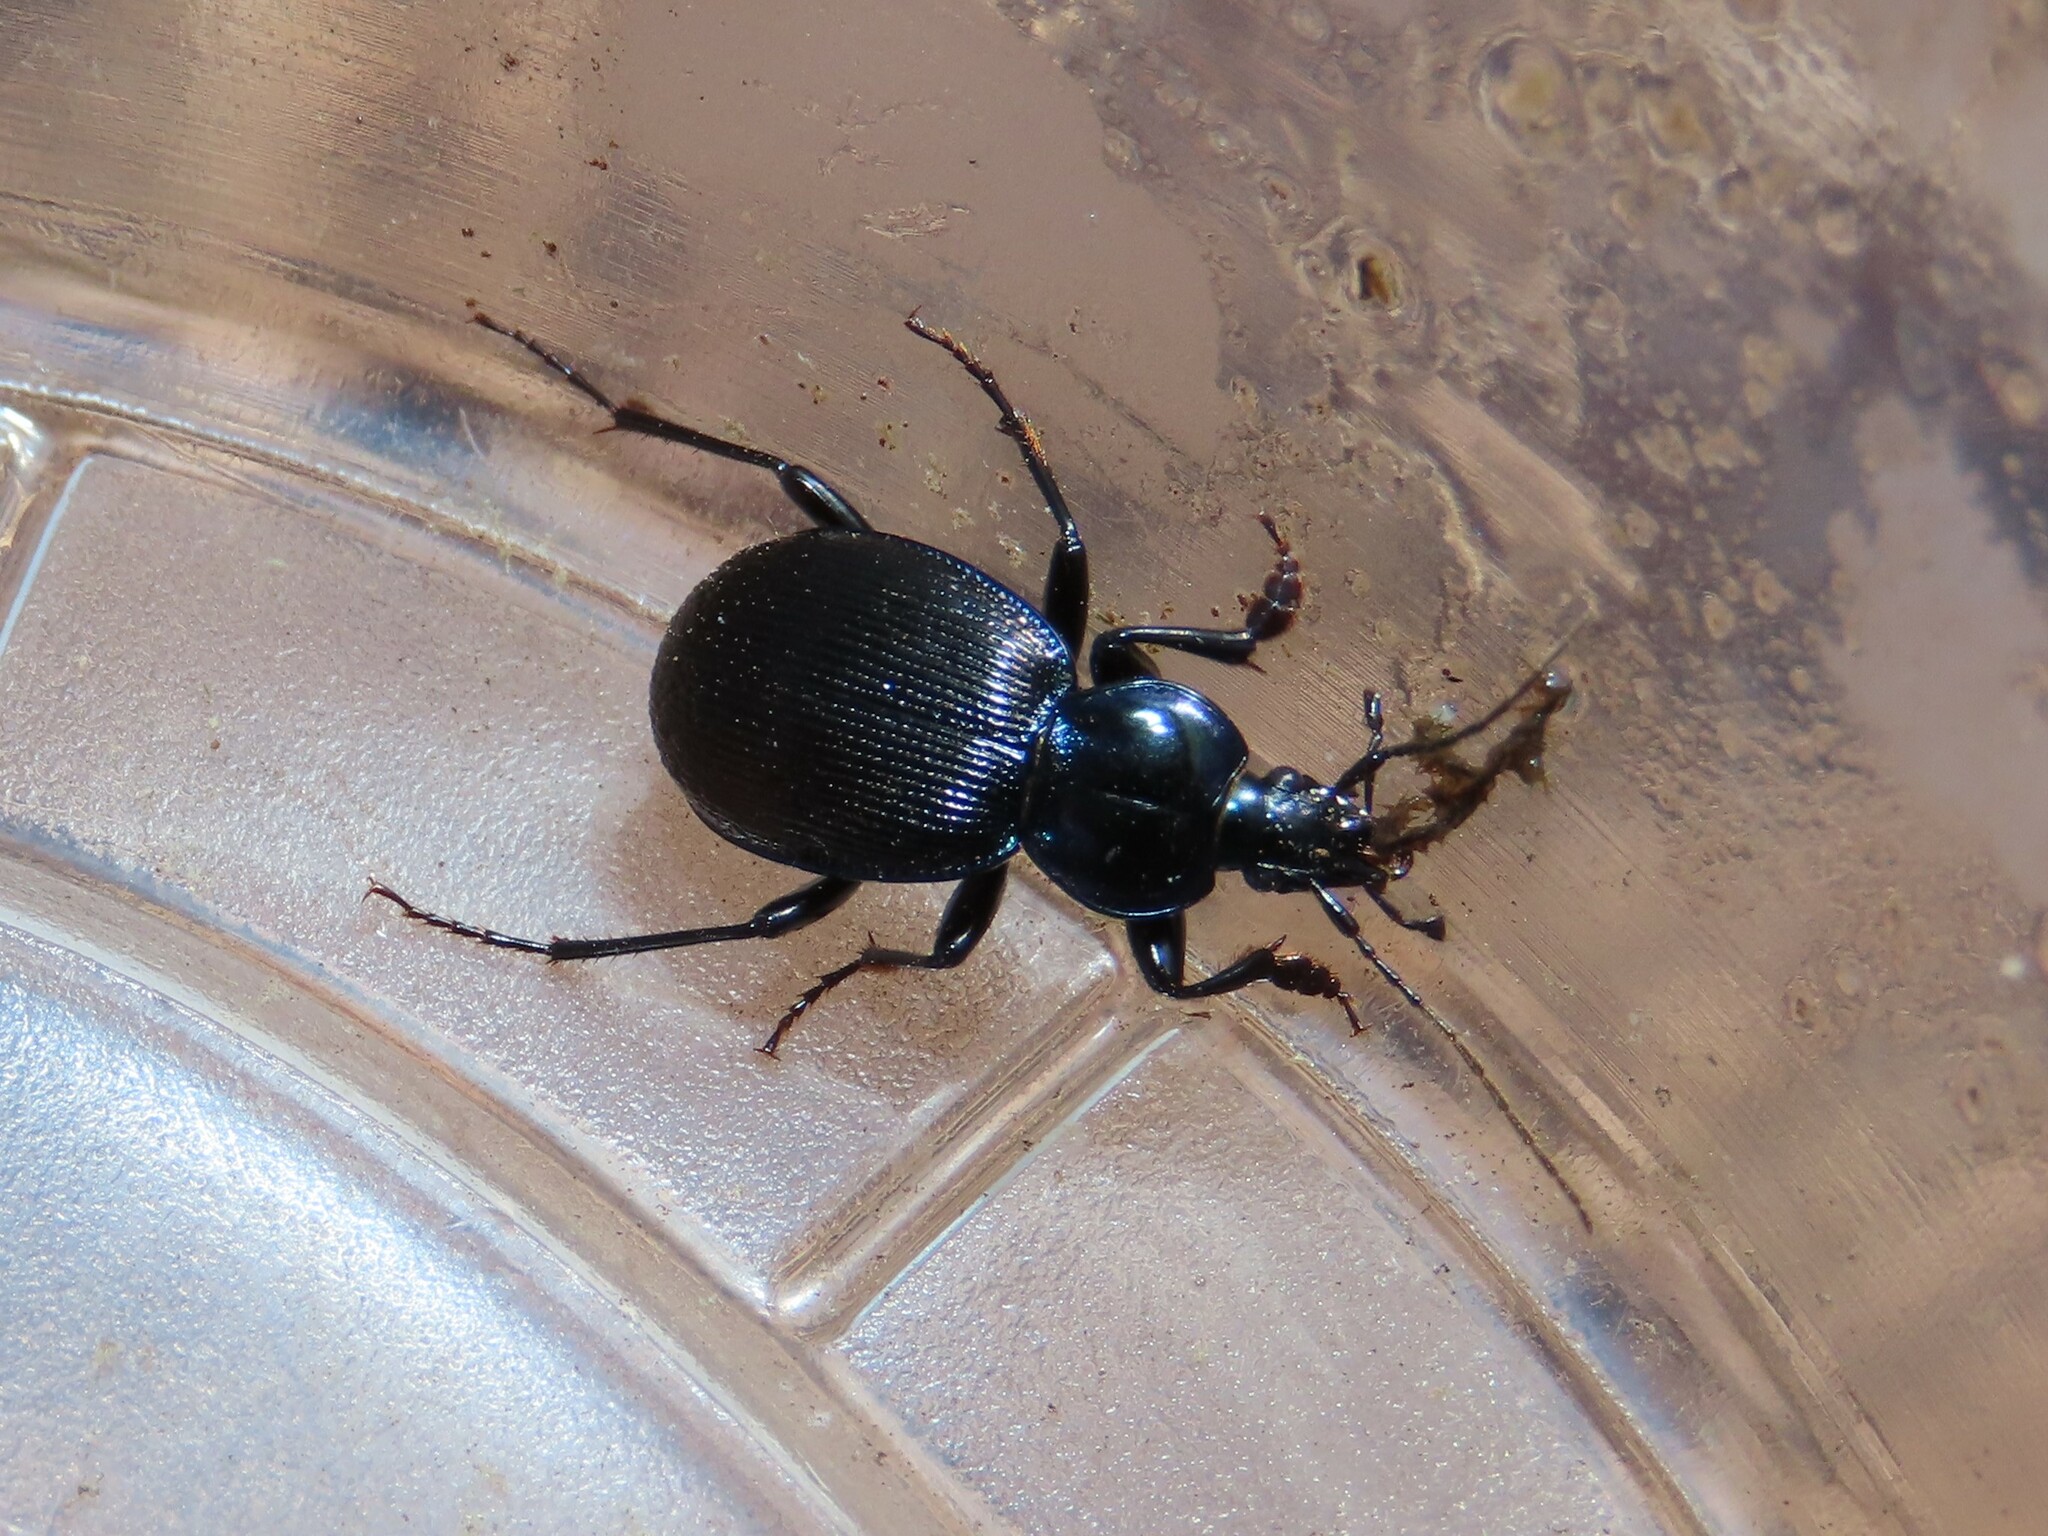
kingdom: Animalia
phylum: Arthropoda
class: Insecta
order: Coleoptera
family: Carabidae
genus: Sphaeroderus
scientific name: Sphaeroderus stenostomus
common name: Small snail-eating ground beetle
